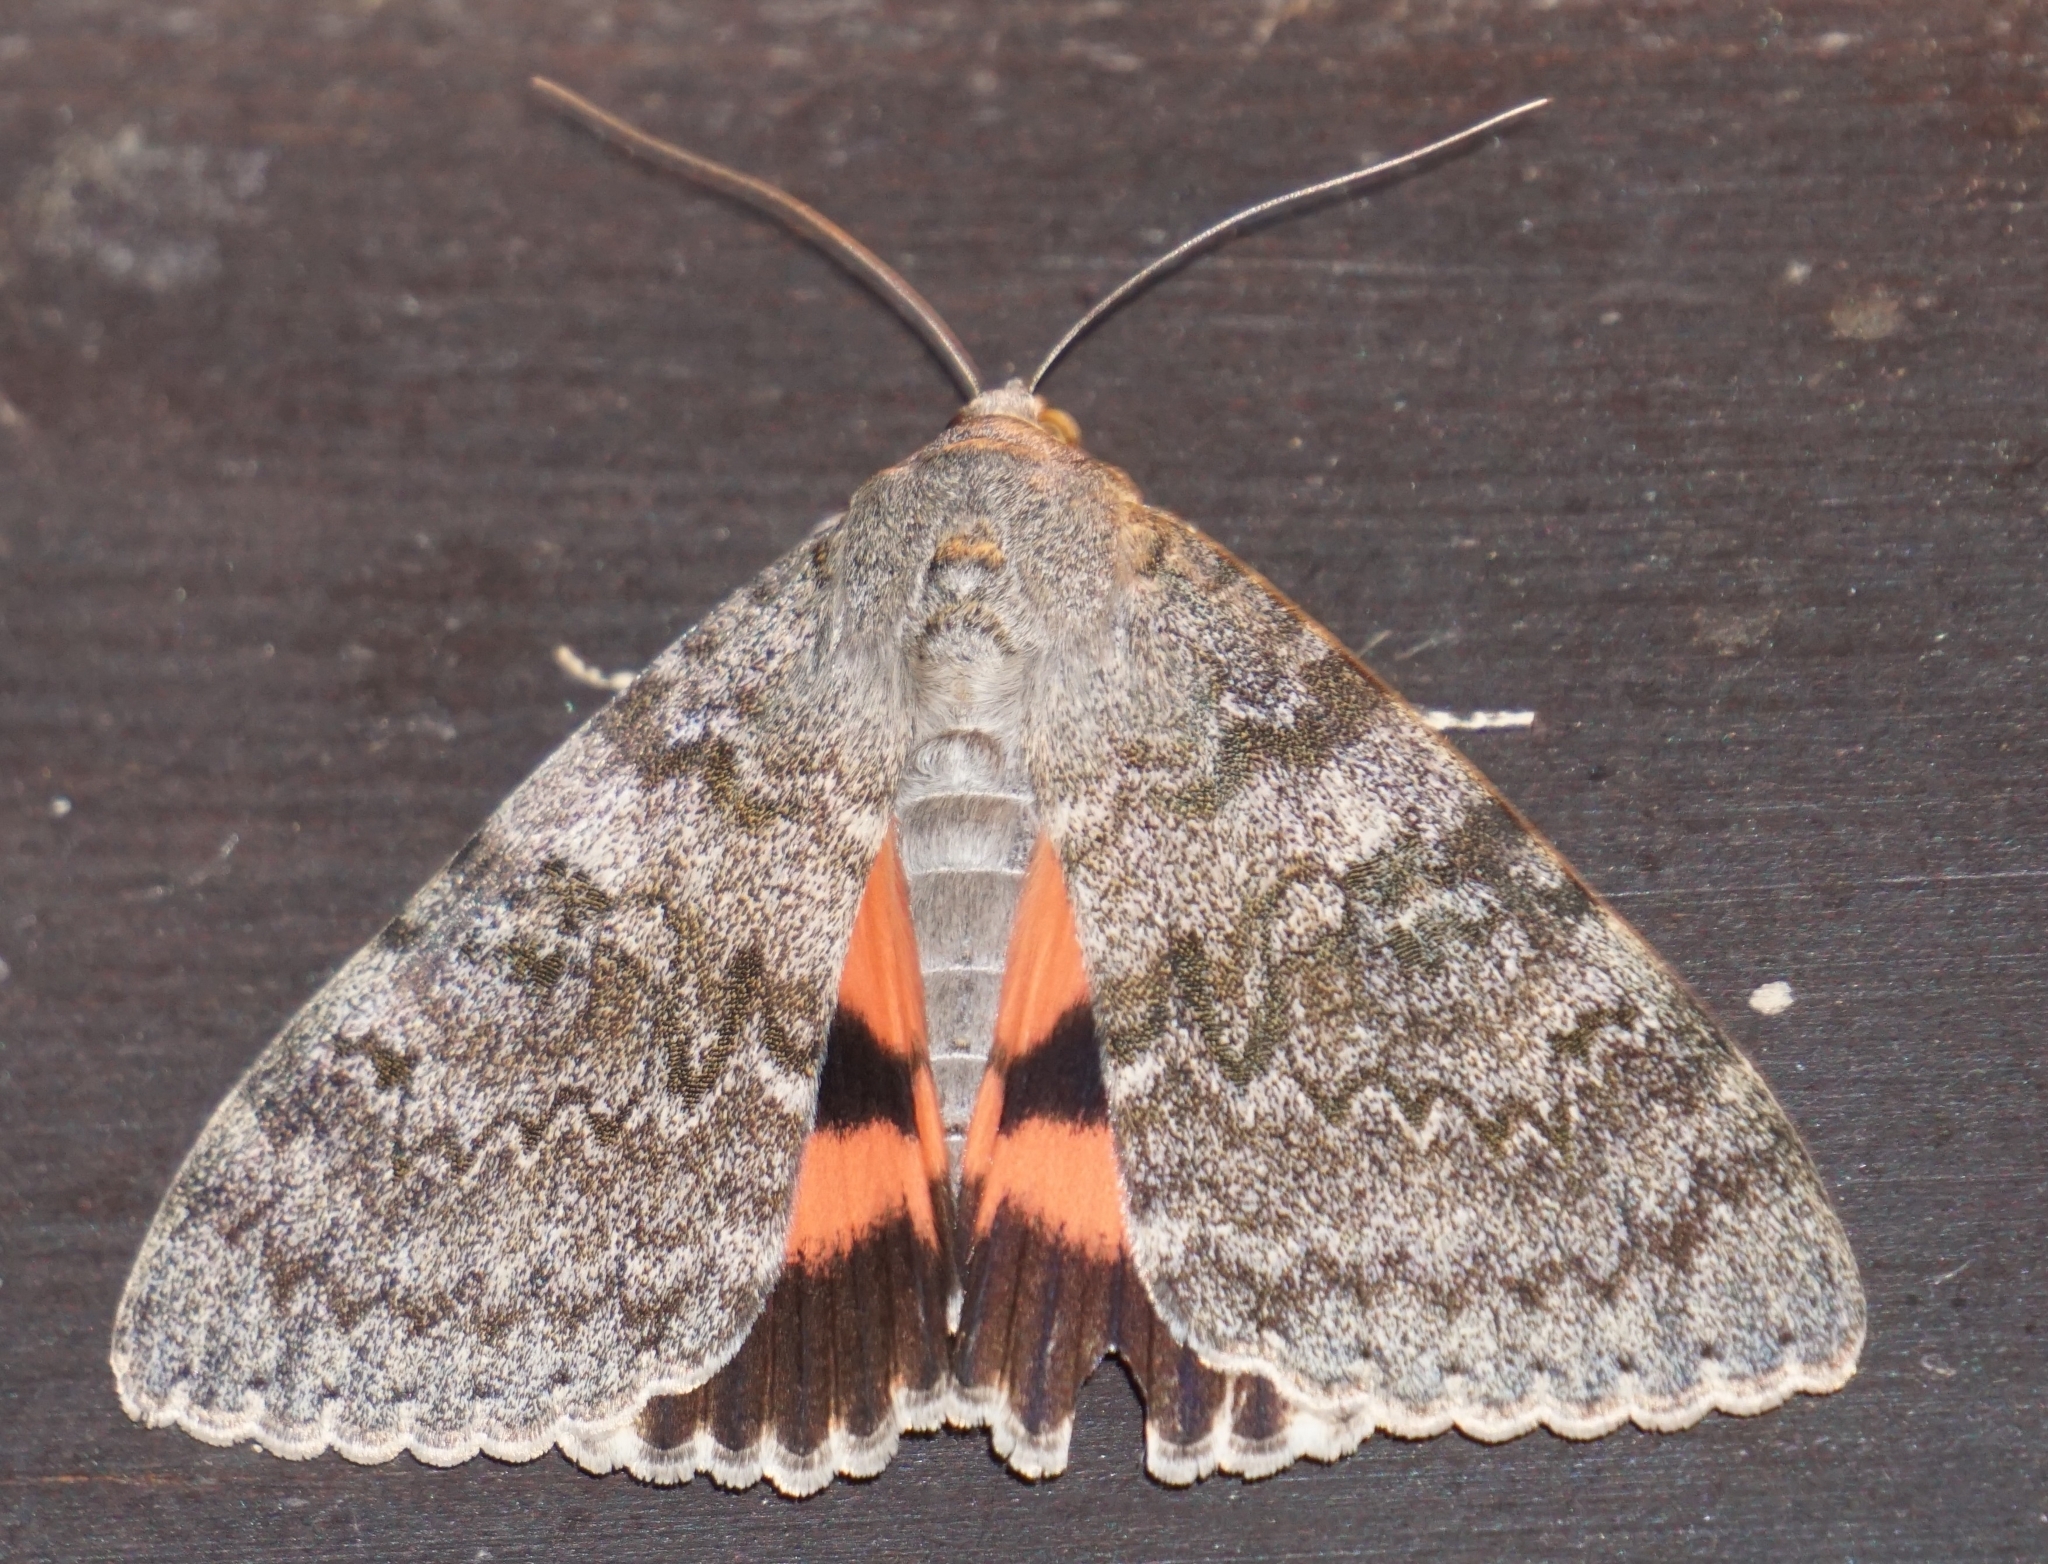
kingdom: Animalia
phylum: Arthropoda
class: Insecta
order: Lepidoptera
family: Erebidae
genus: Catocala
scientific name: Catocala elocata
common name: French red underwing
